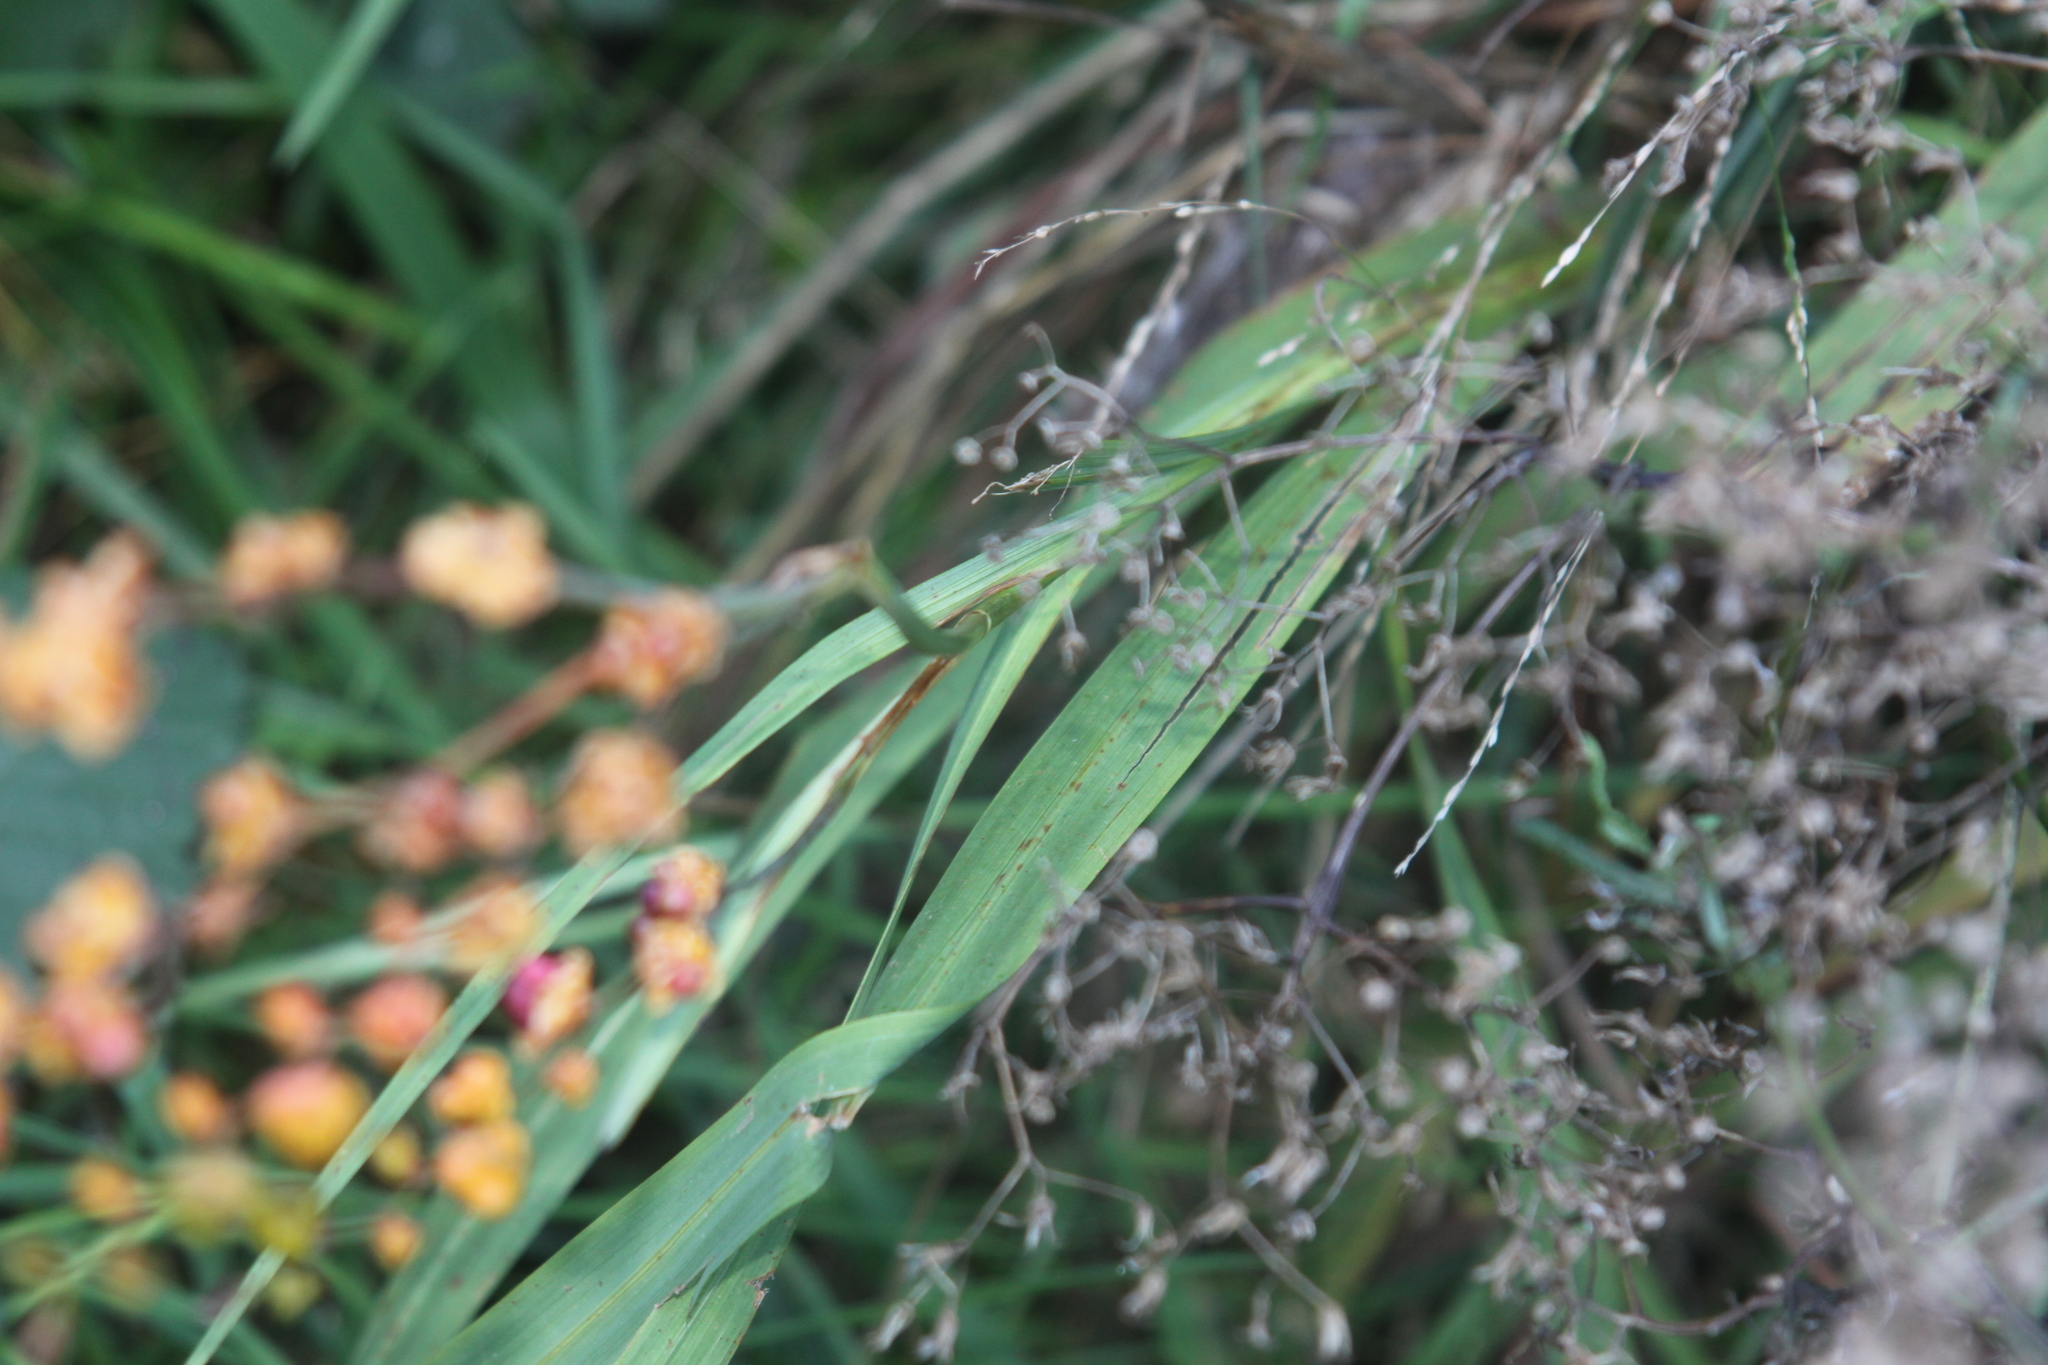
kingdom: Plantae
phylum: Tracheophyta
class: Liliopsida
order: Asparagales
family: Iridaceae
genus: Crocosmia
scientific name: Crocosmia crocosmiiflora
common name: Montbretia
